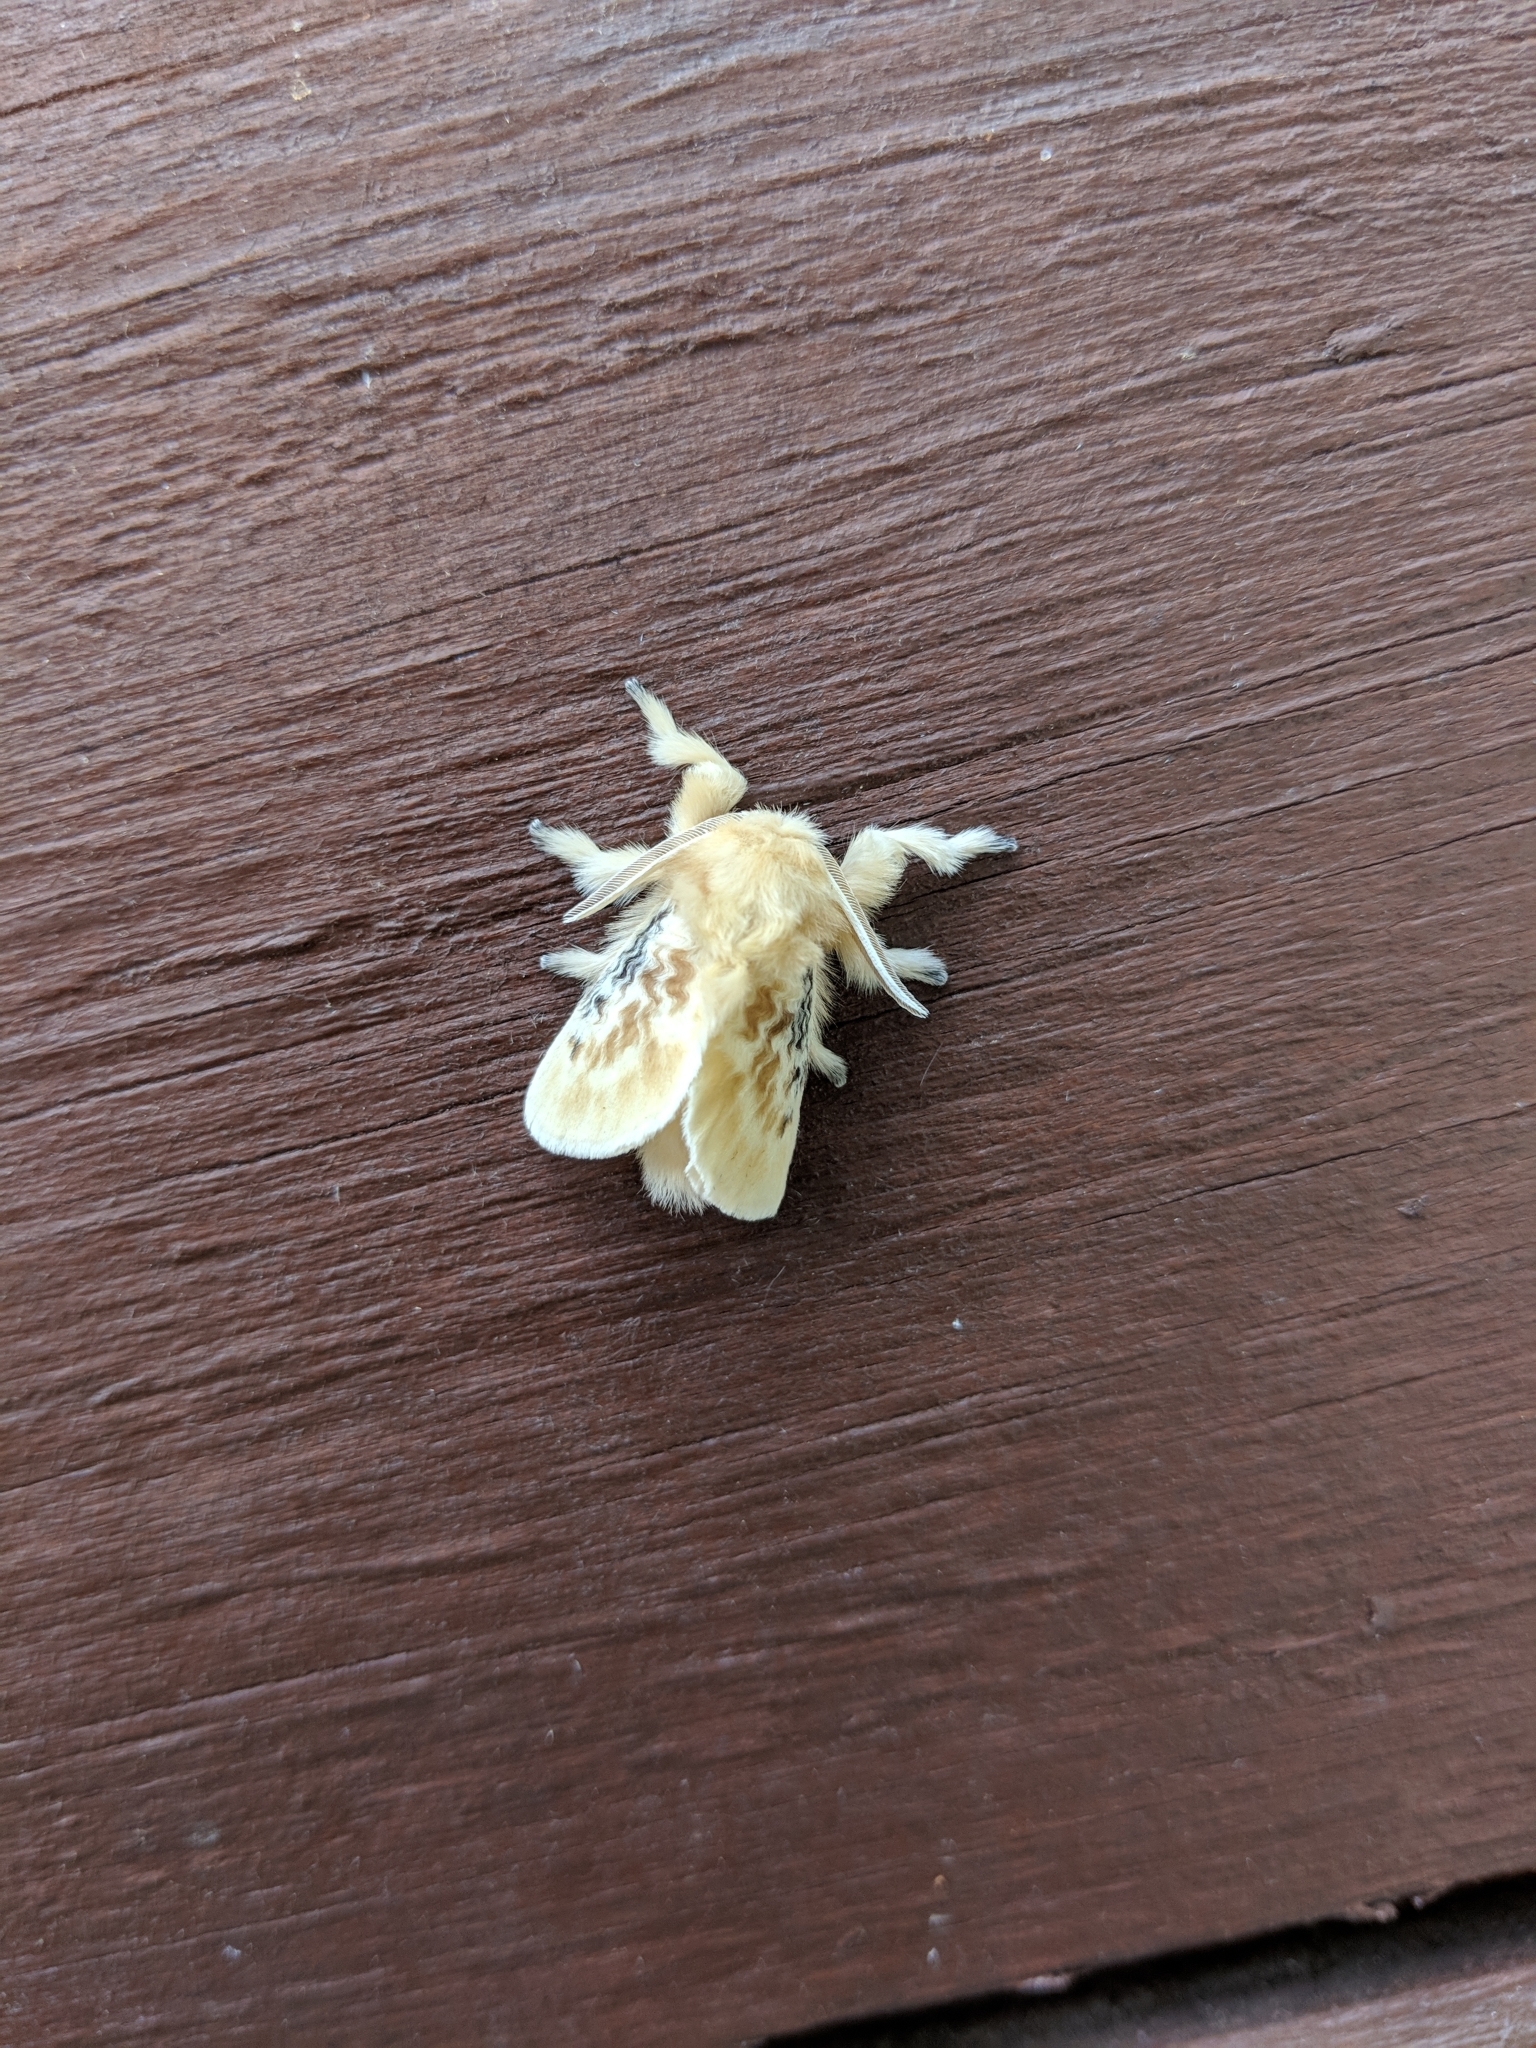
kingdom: Animalia
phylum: Arthropoda
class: Insecta
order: Lepidoptera
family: Megalopygidae
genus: Megalopyge
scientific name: Megalopyge crispata
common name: Black-waved flannel moth
